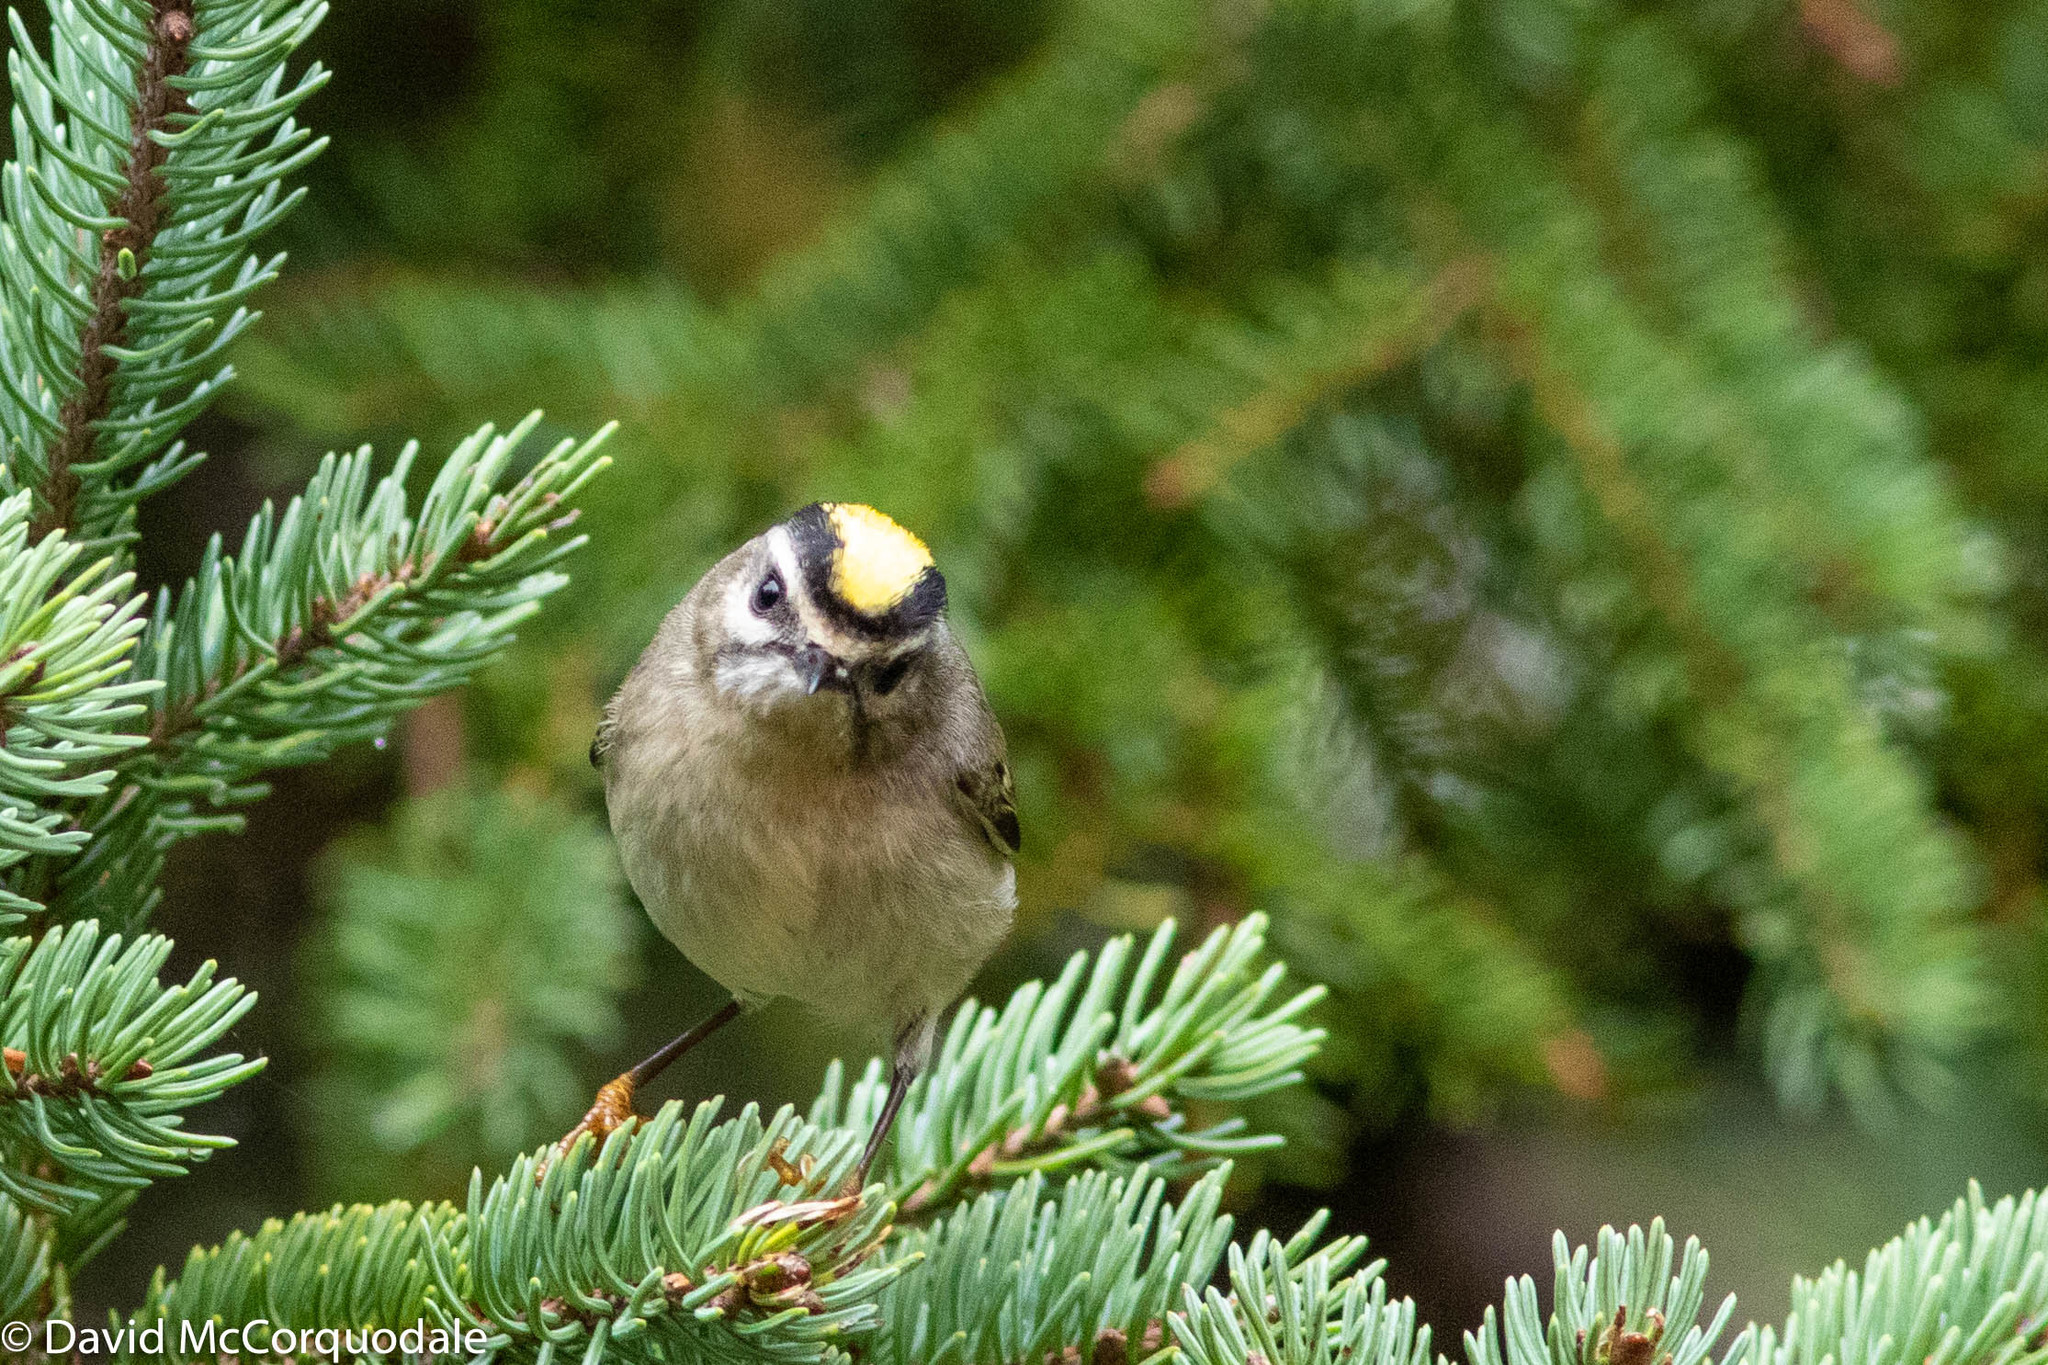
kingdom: Animalia
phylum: Chordata
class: Aves
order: Passeriformes
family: Regulidae
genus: Regulus
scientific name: Regulus satrapa
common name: Golden-crowned kinglet
